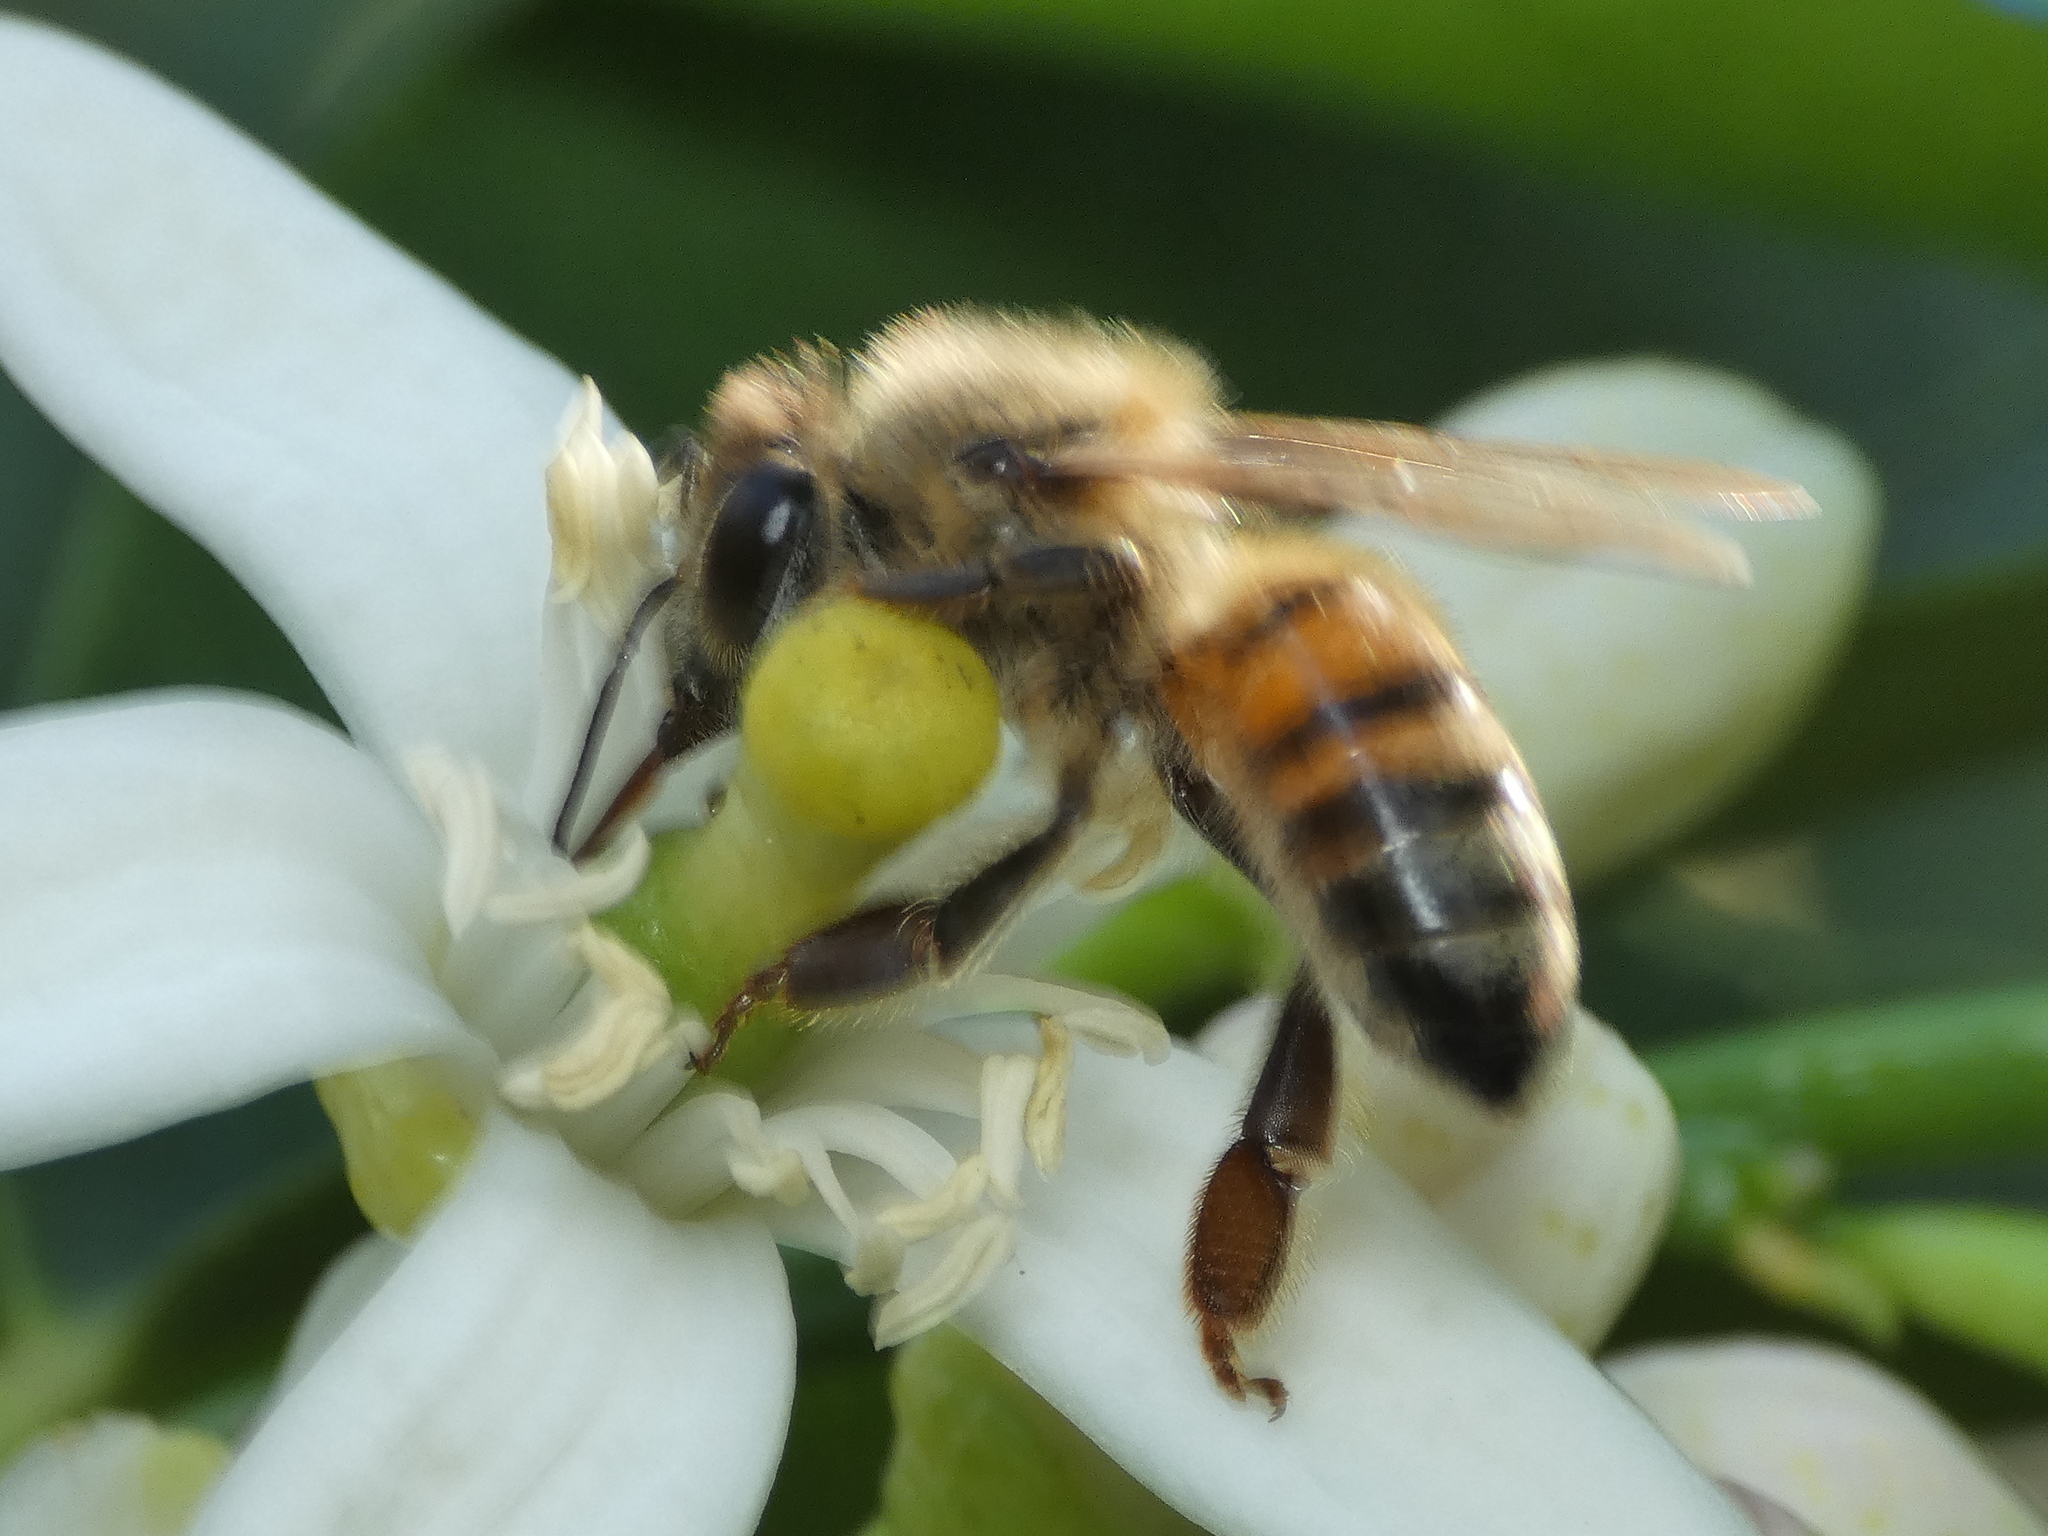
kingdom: Animalia
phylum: Arthropoda
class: Insecta
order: Hymenoptera
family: Apidae
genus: Apis
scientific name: Apis mellifera
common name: Honey bee
